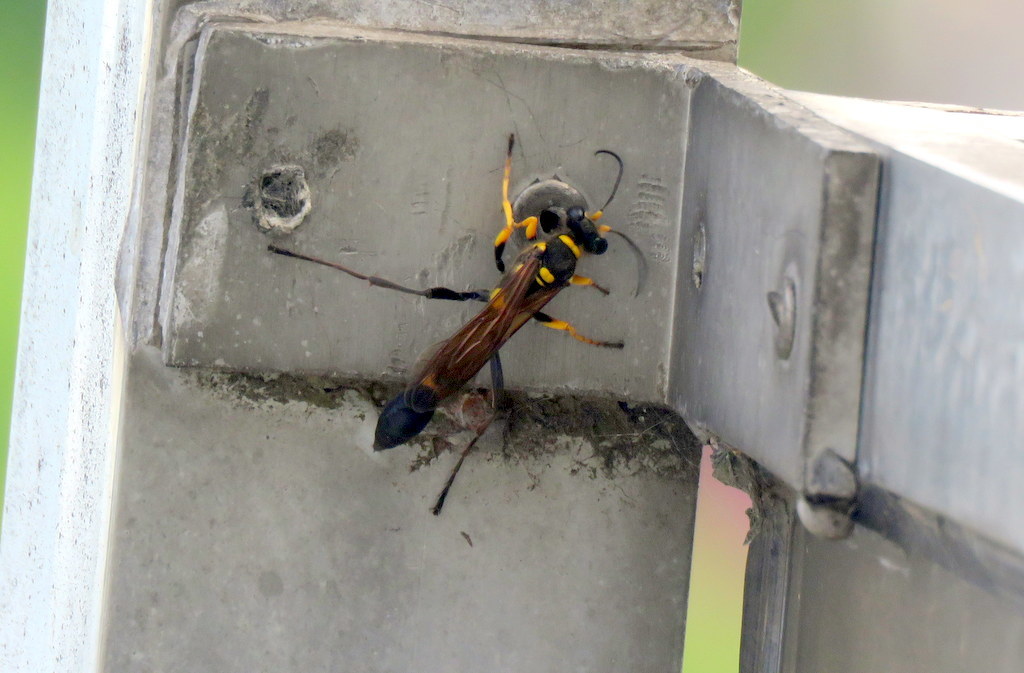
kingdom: Animalia
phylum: Arthropoda
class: Insecta
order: Hymenoptera
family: Sphecidae
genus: Sceliphron
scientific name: Sceliphron asiaticum
